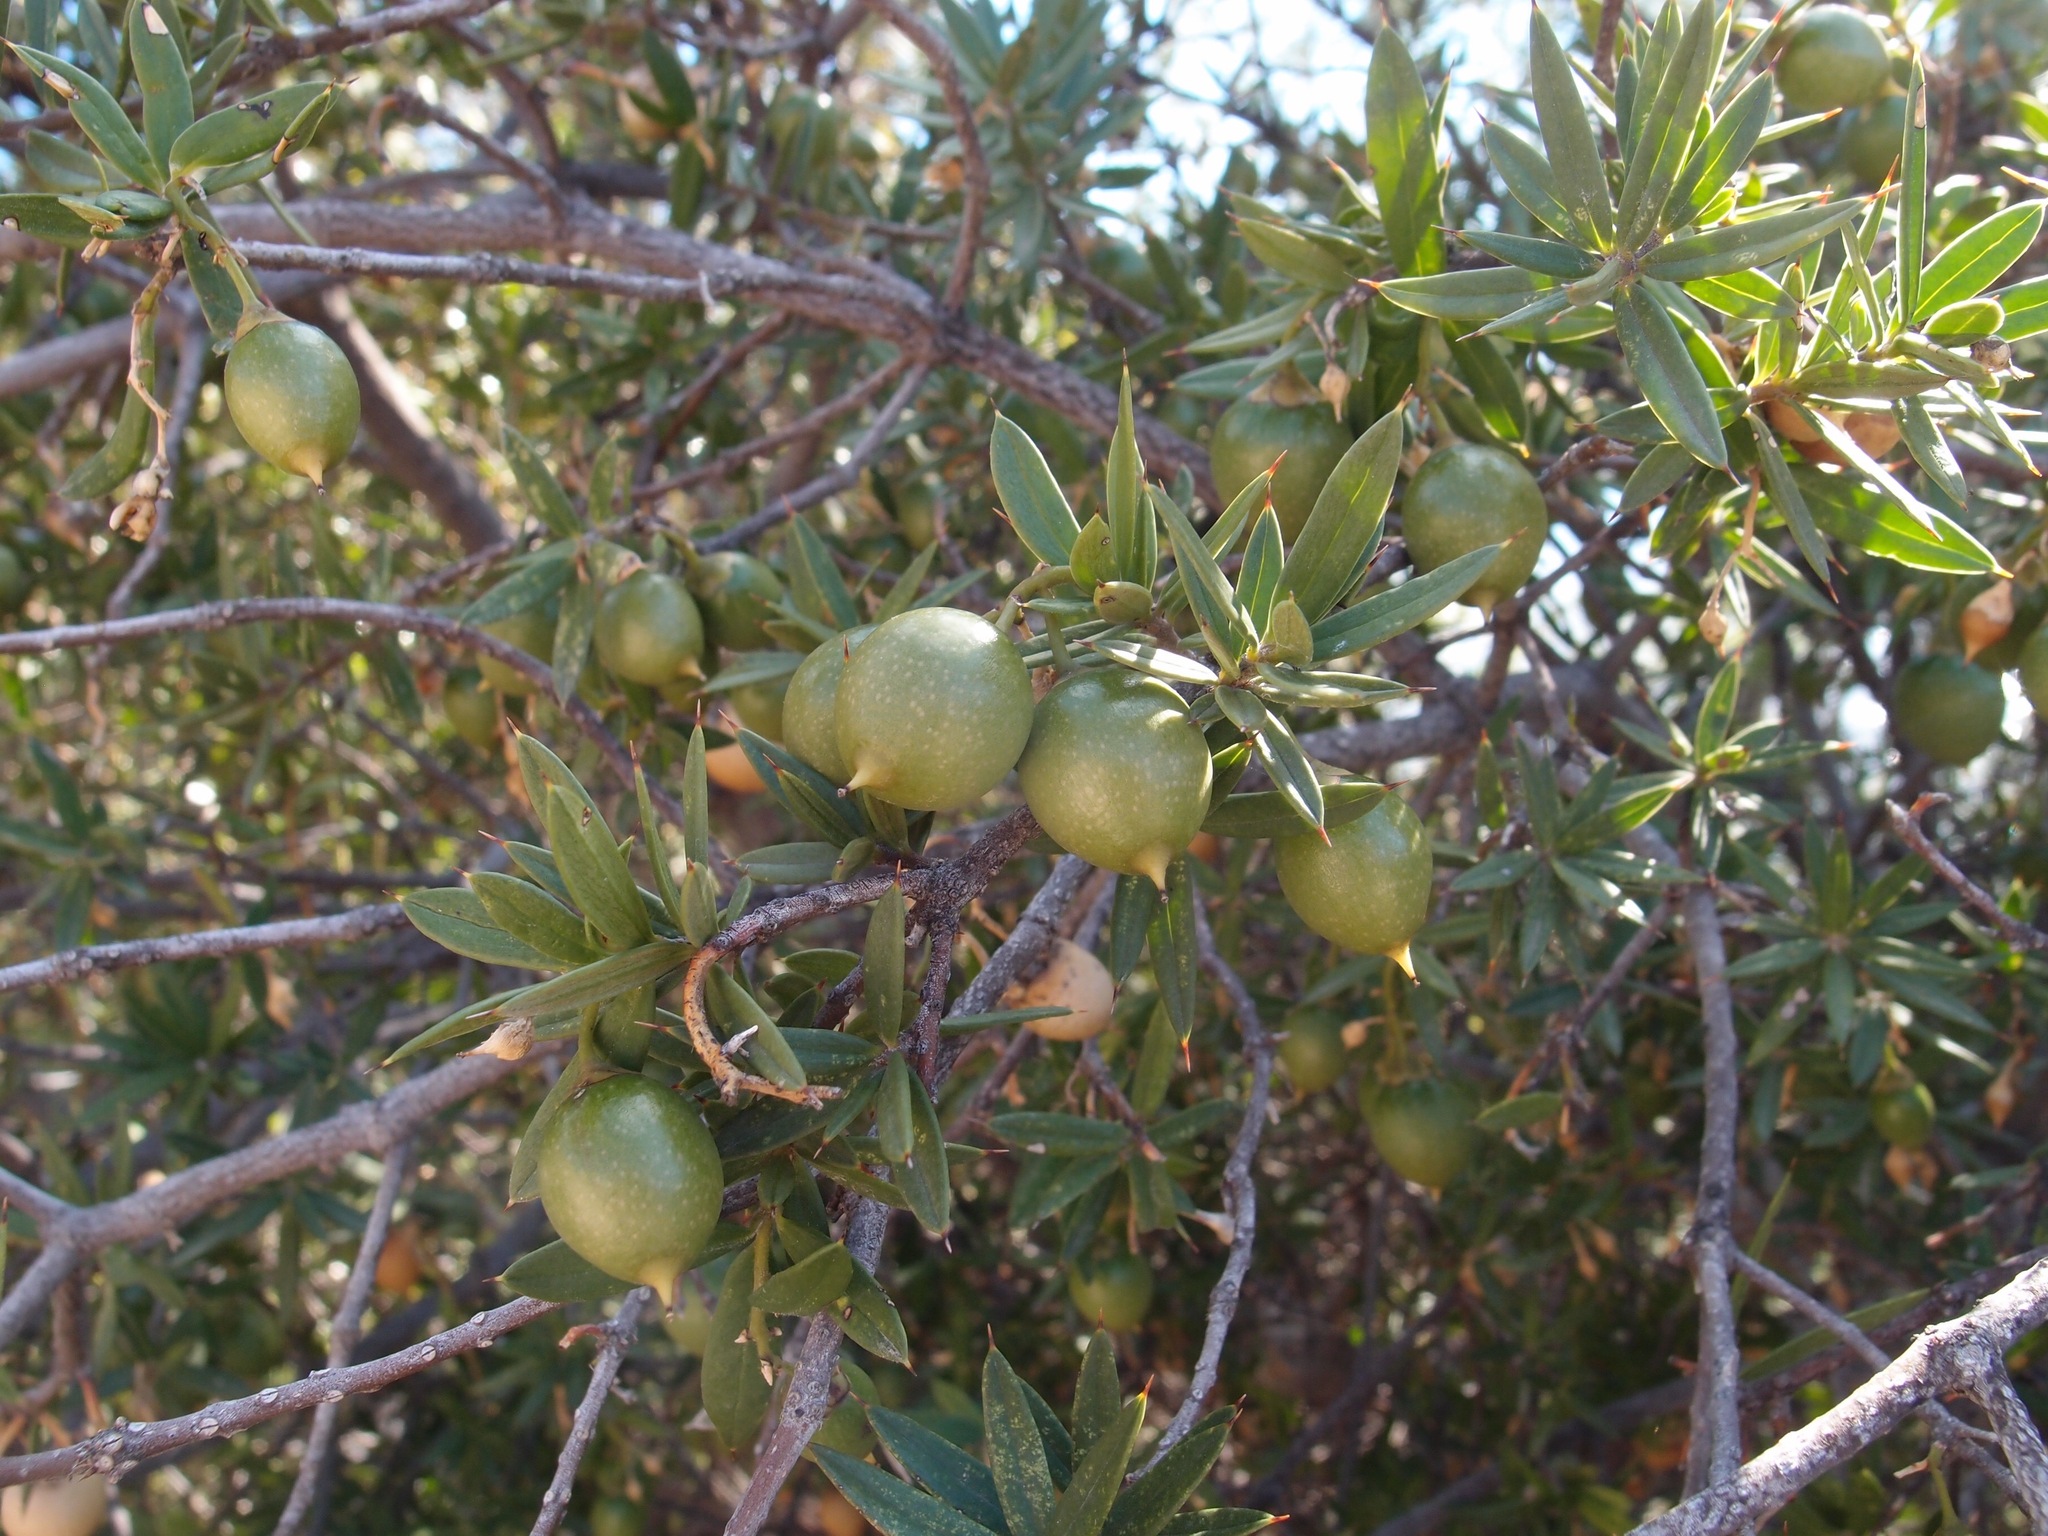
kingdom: Plantae
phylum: Tracheophyta
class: Magnoliopsida
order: Ericales
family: Primulaceae
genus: Bonellia
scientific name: Bonellia macrocarpa
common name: Primrose
